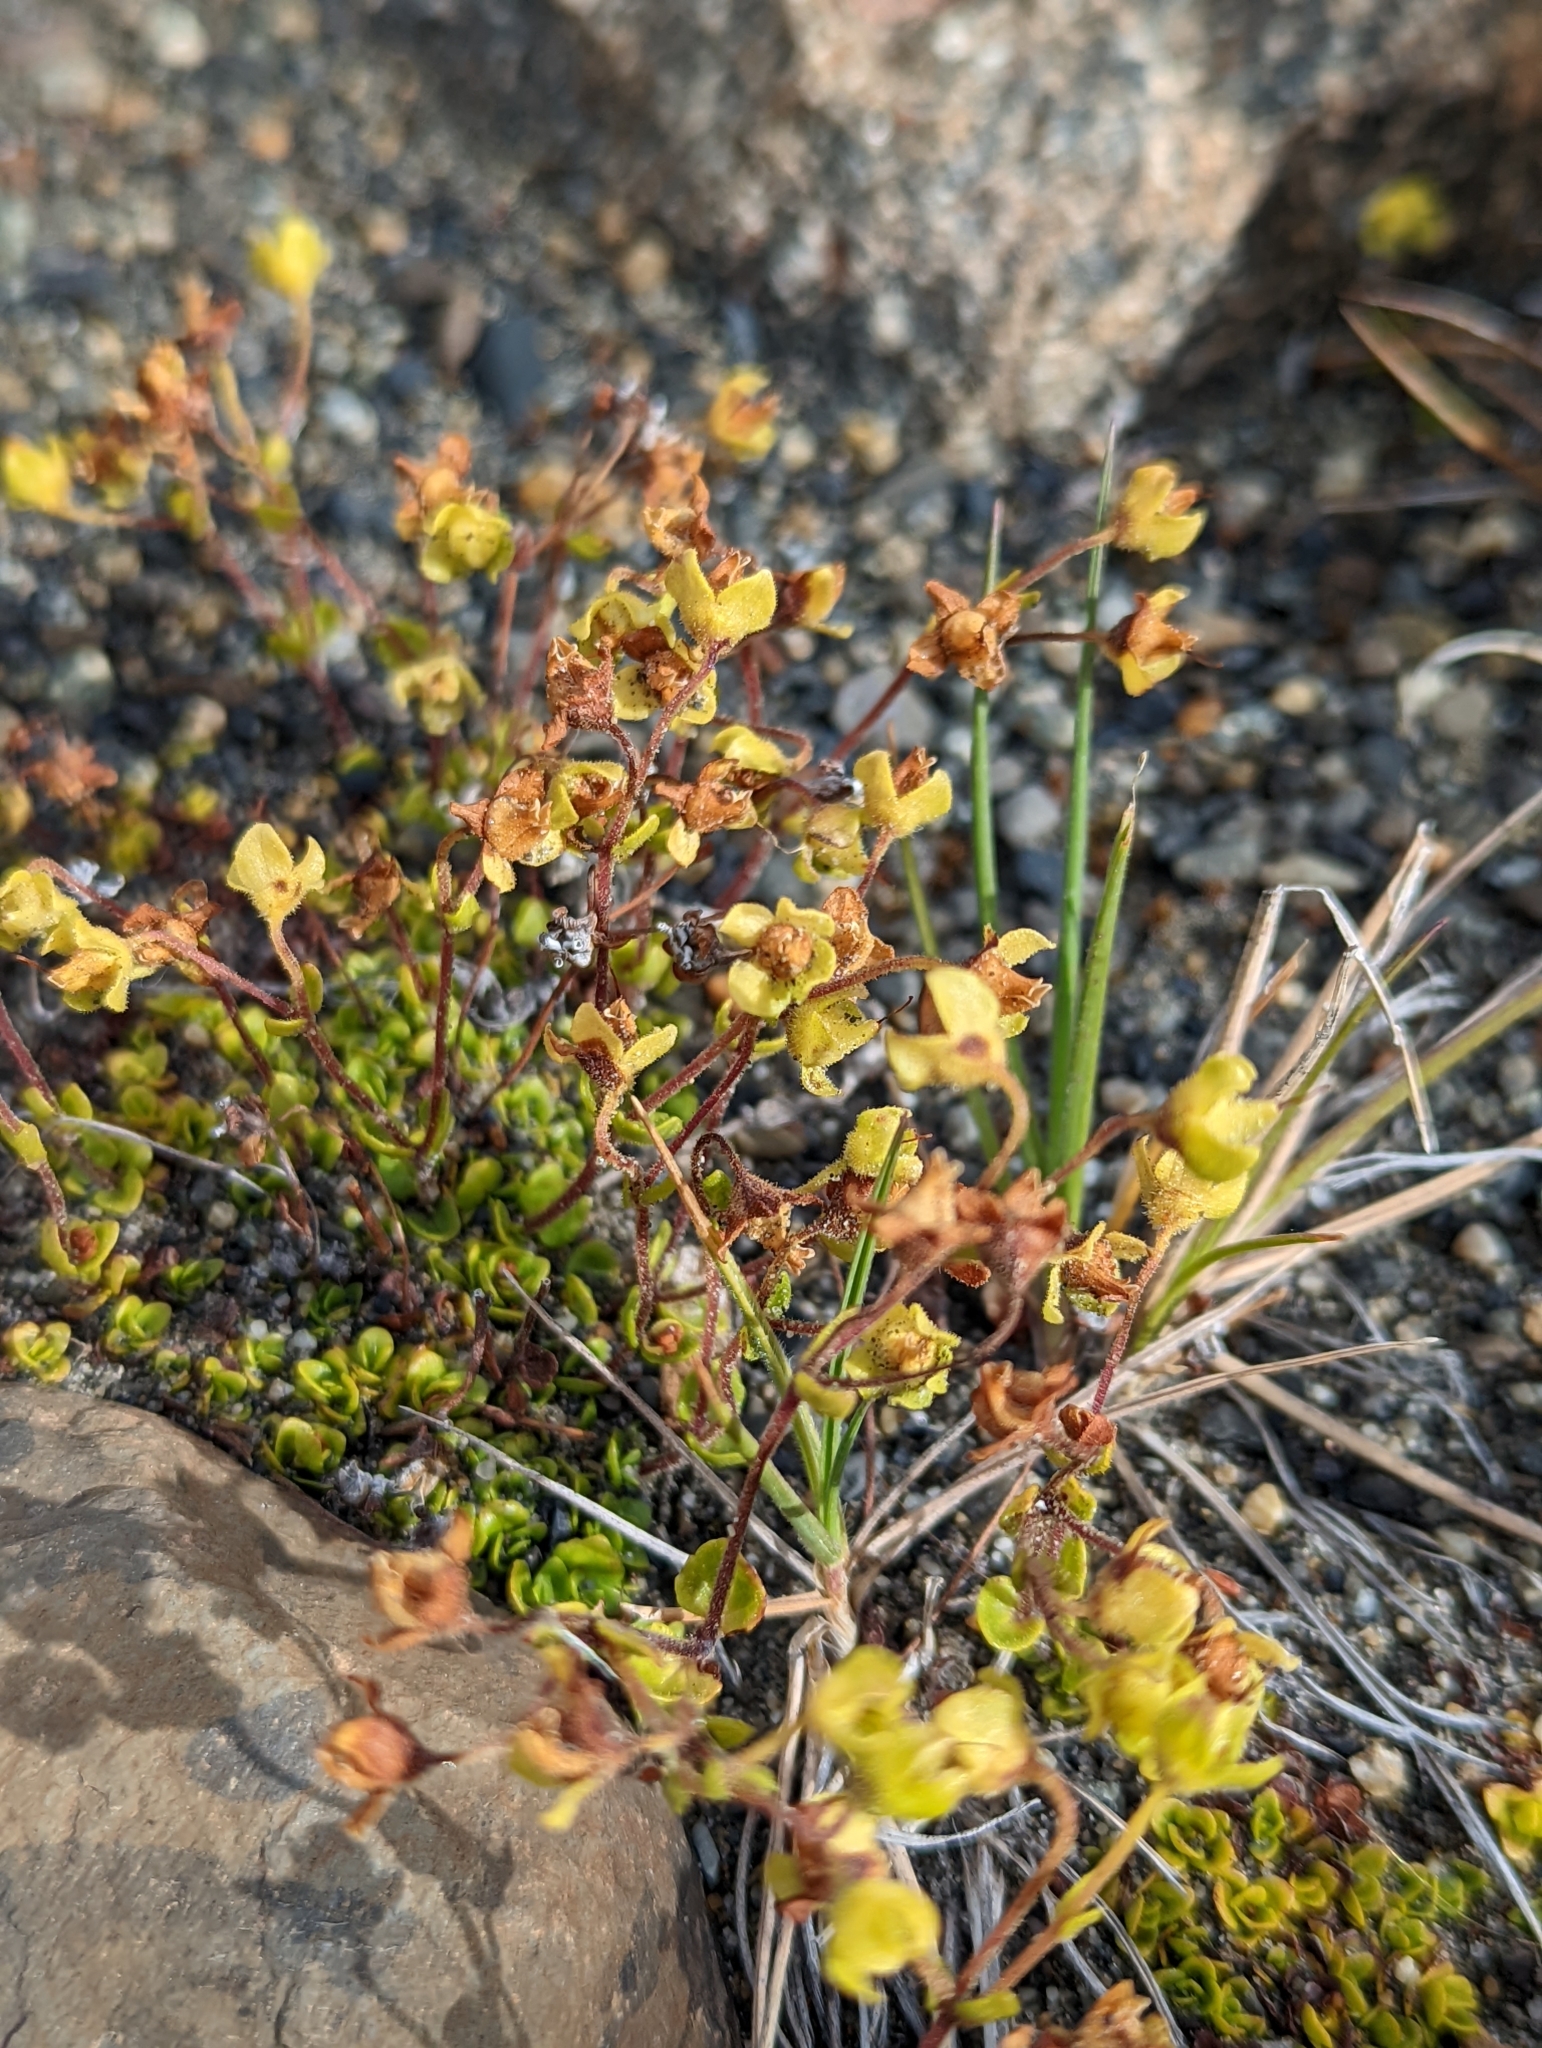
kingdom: Plantae
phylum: Tracheophyta
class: Magnoliopsida
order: Lamiales
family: Calceolariaceae
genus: Calceolaria
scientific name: Calceolaria tenella
